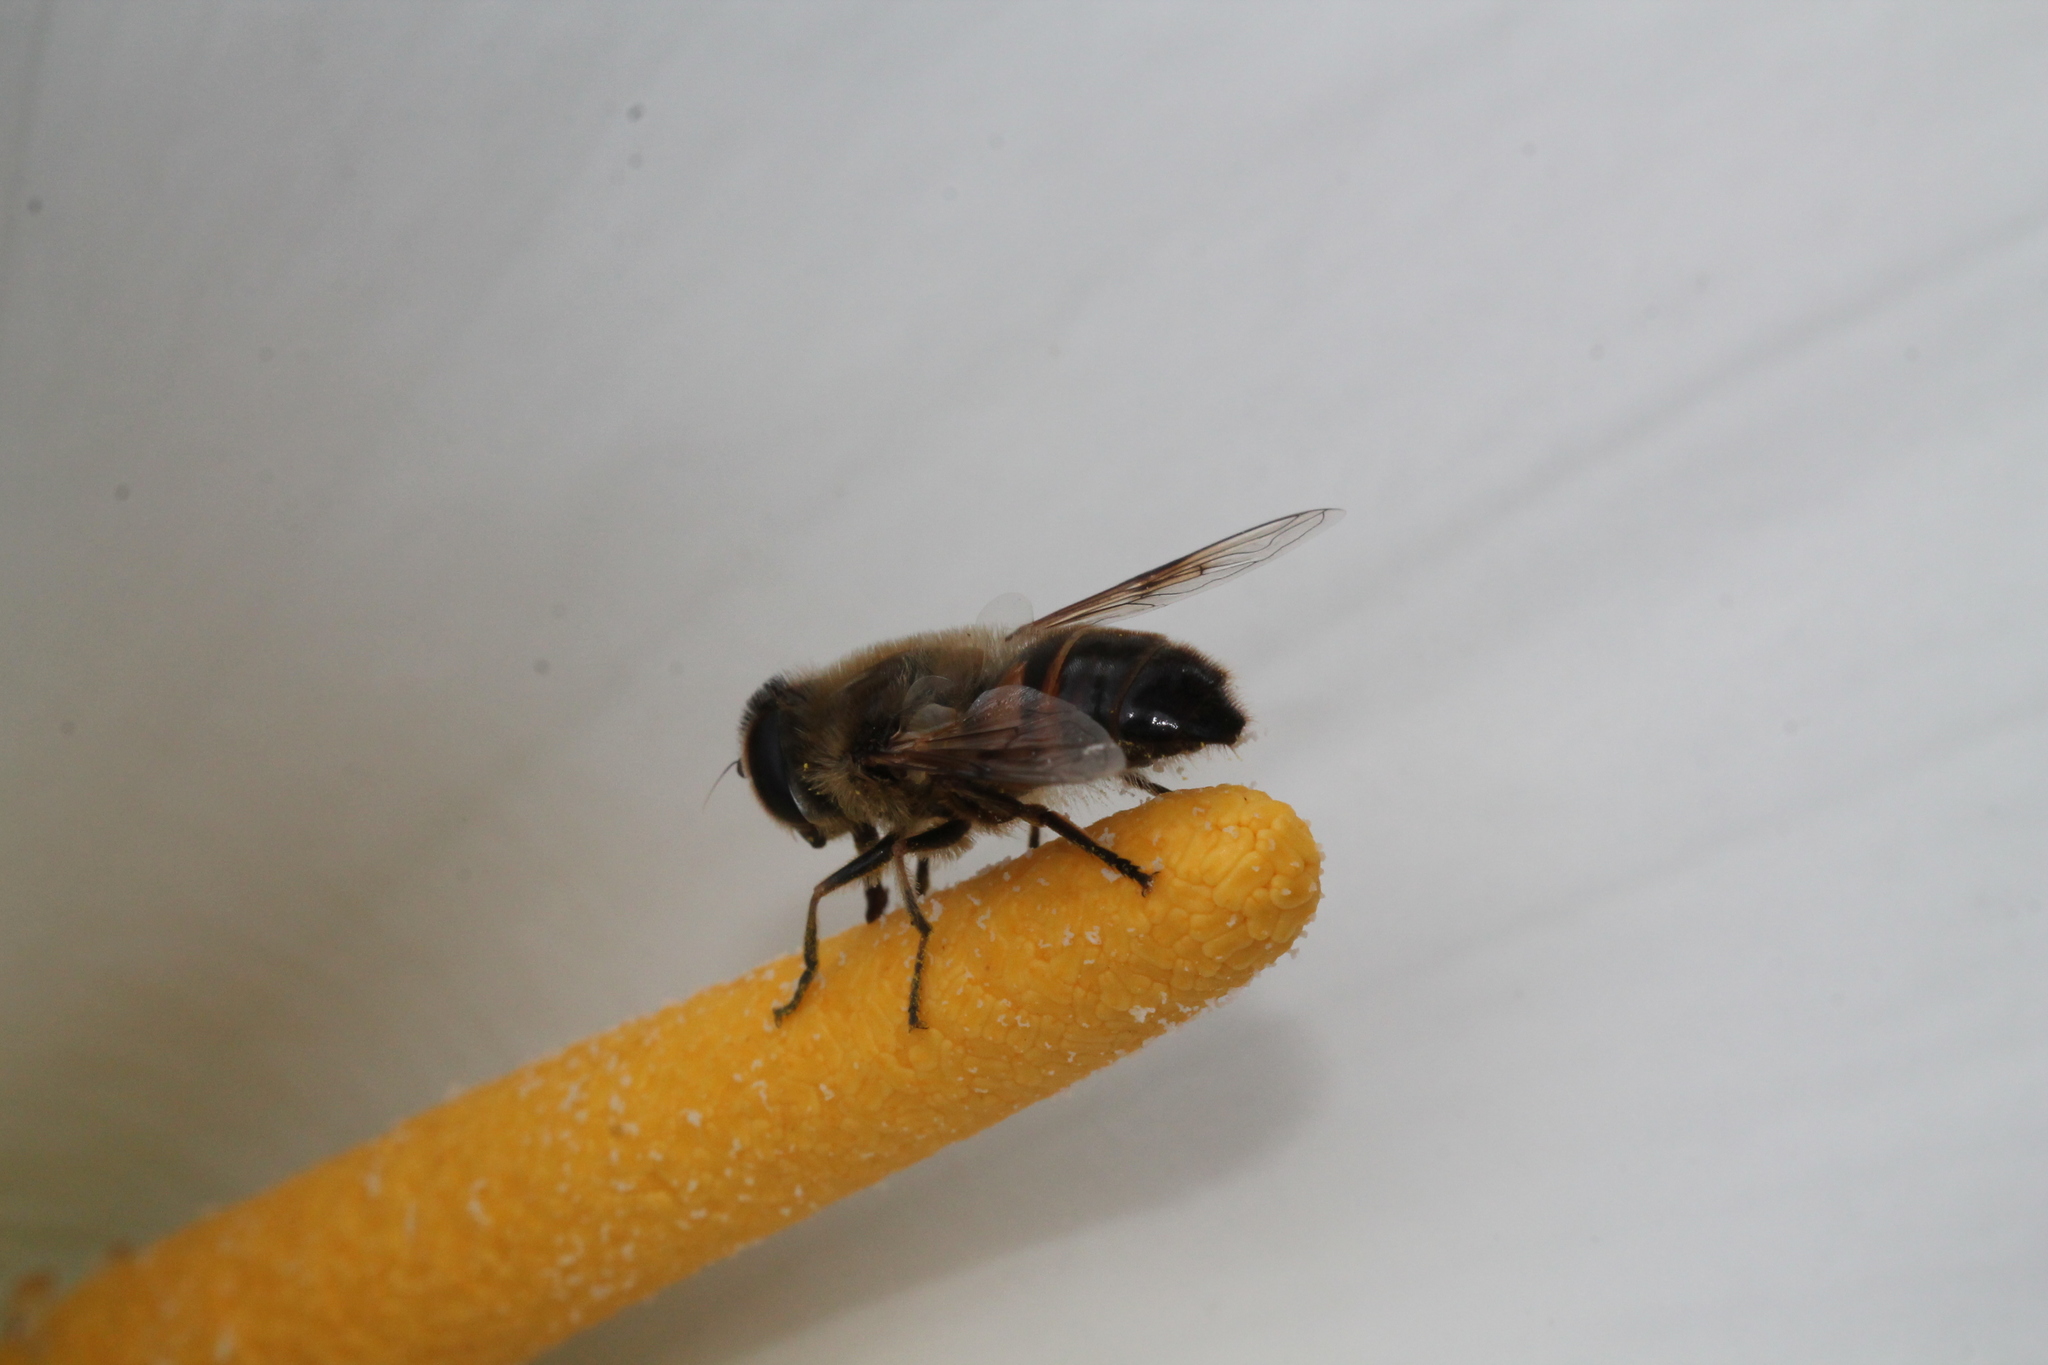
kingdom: Animalia
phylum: Arthropoda
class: Insecta
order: Diptera
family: Syrphidae
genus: Eristalis
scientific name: Eristalis tenax
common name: Drone fly
